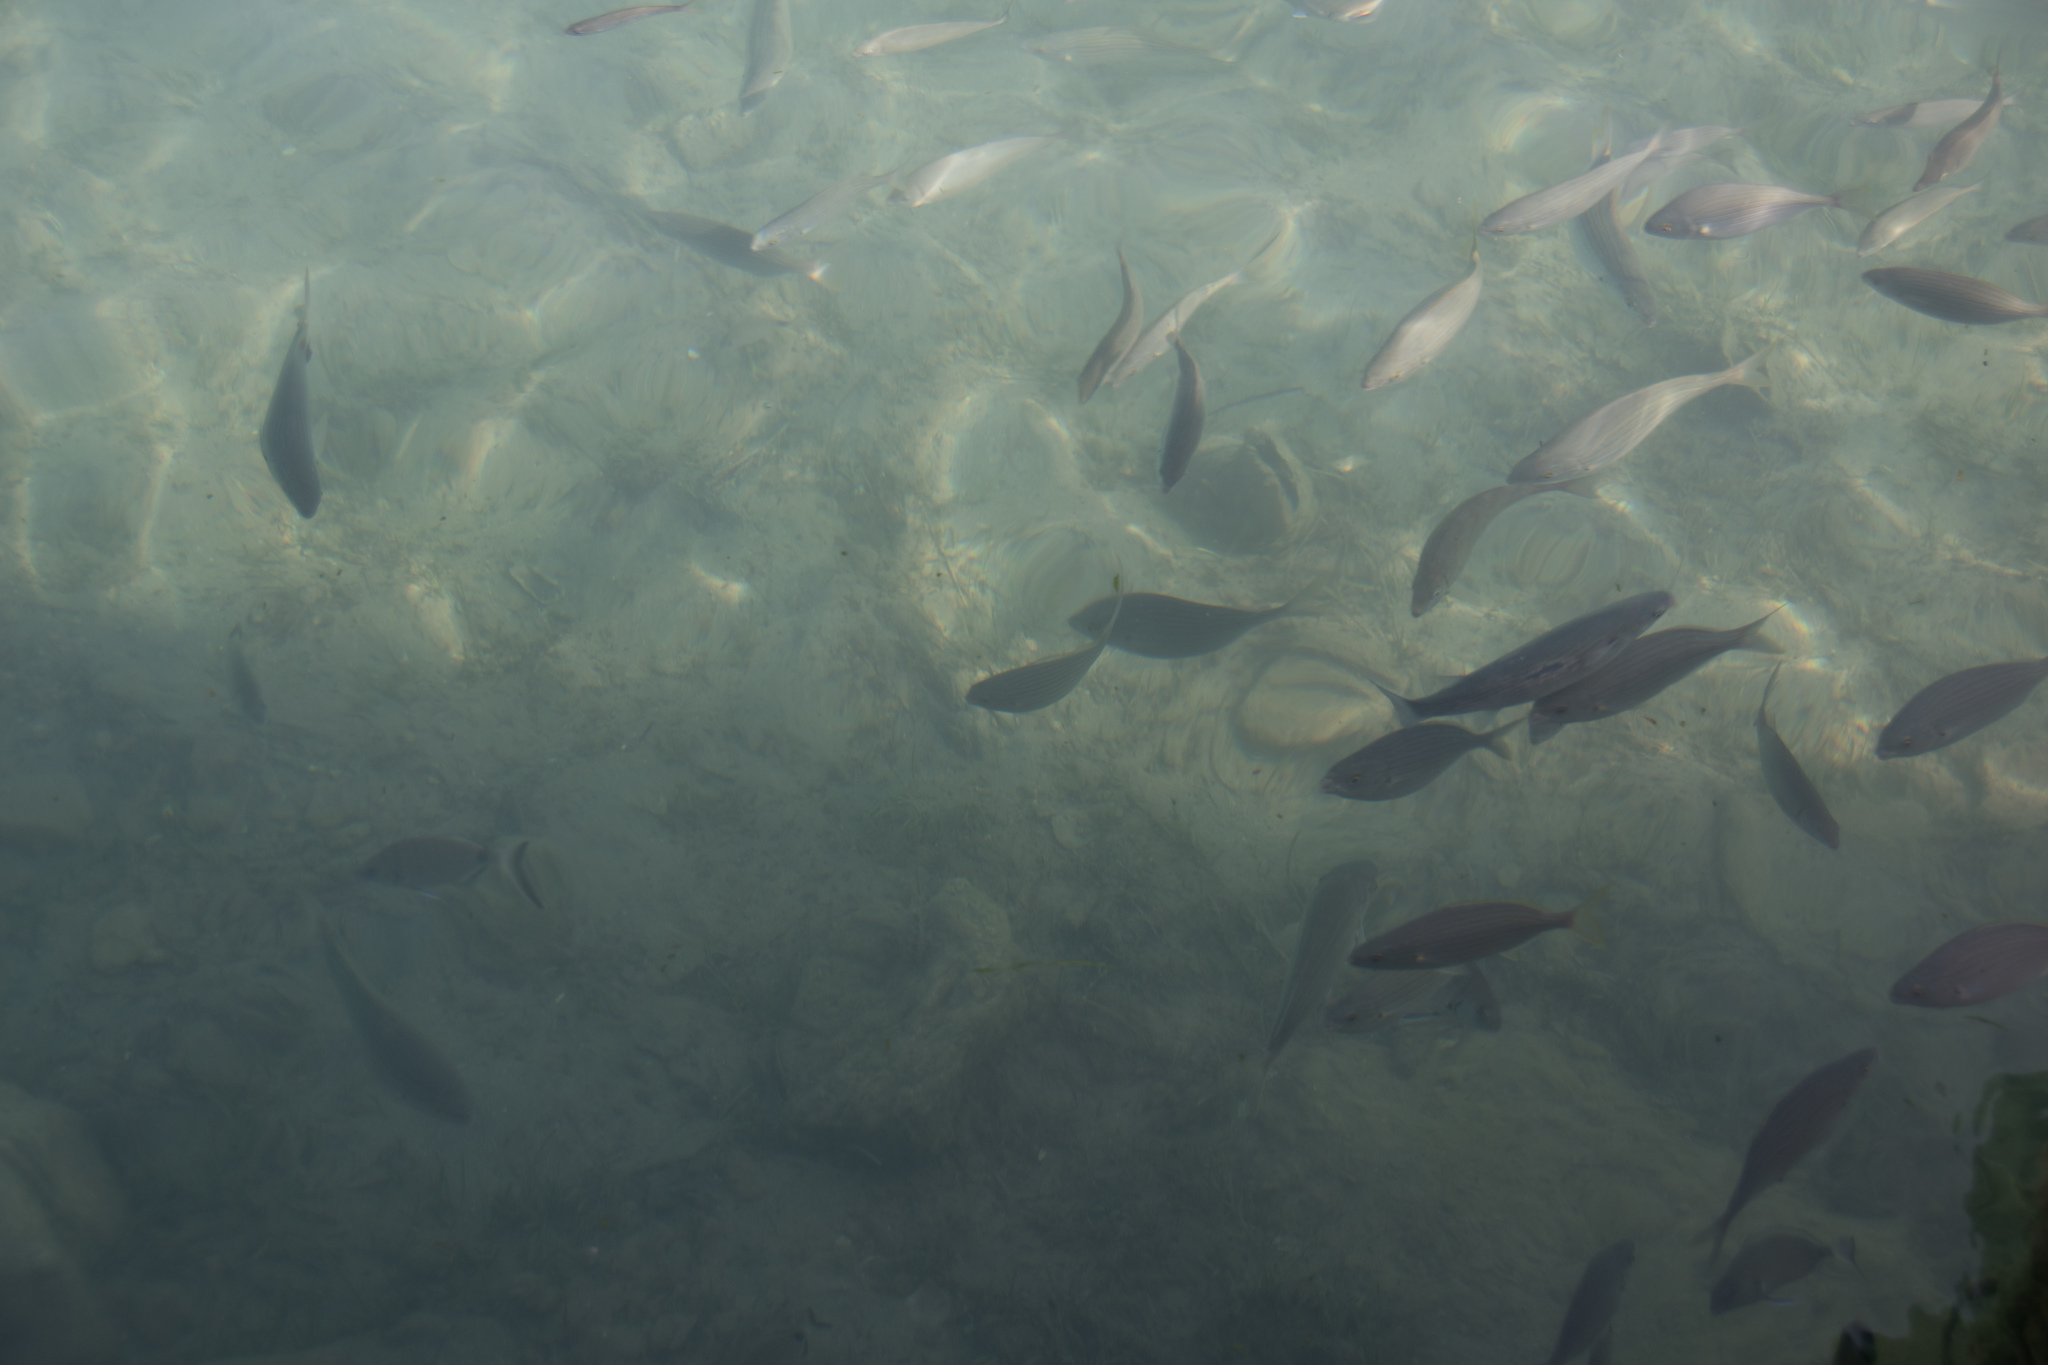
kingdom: Animalia
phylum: Chordata
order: Perciformes
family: Sparidae
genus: Sarpa
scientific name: Sarpa salpa
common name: Salema
